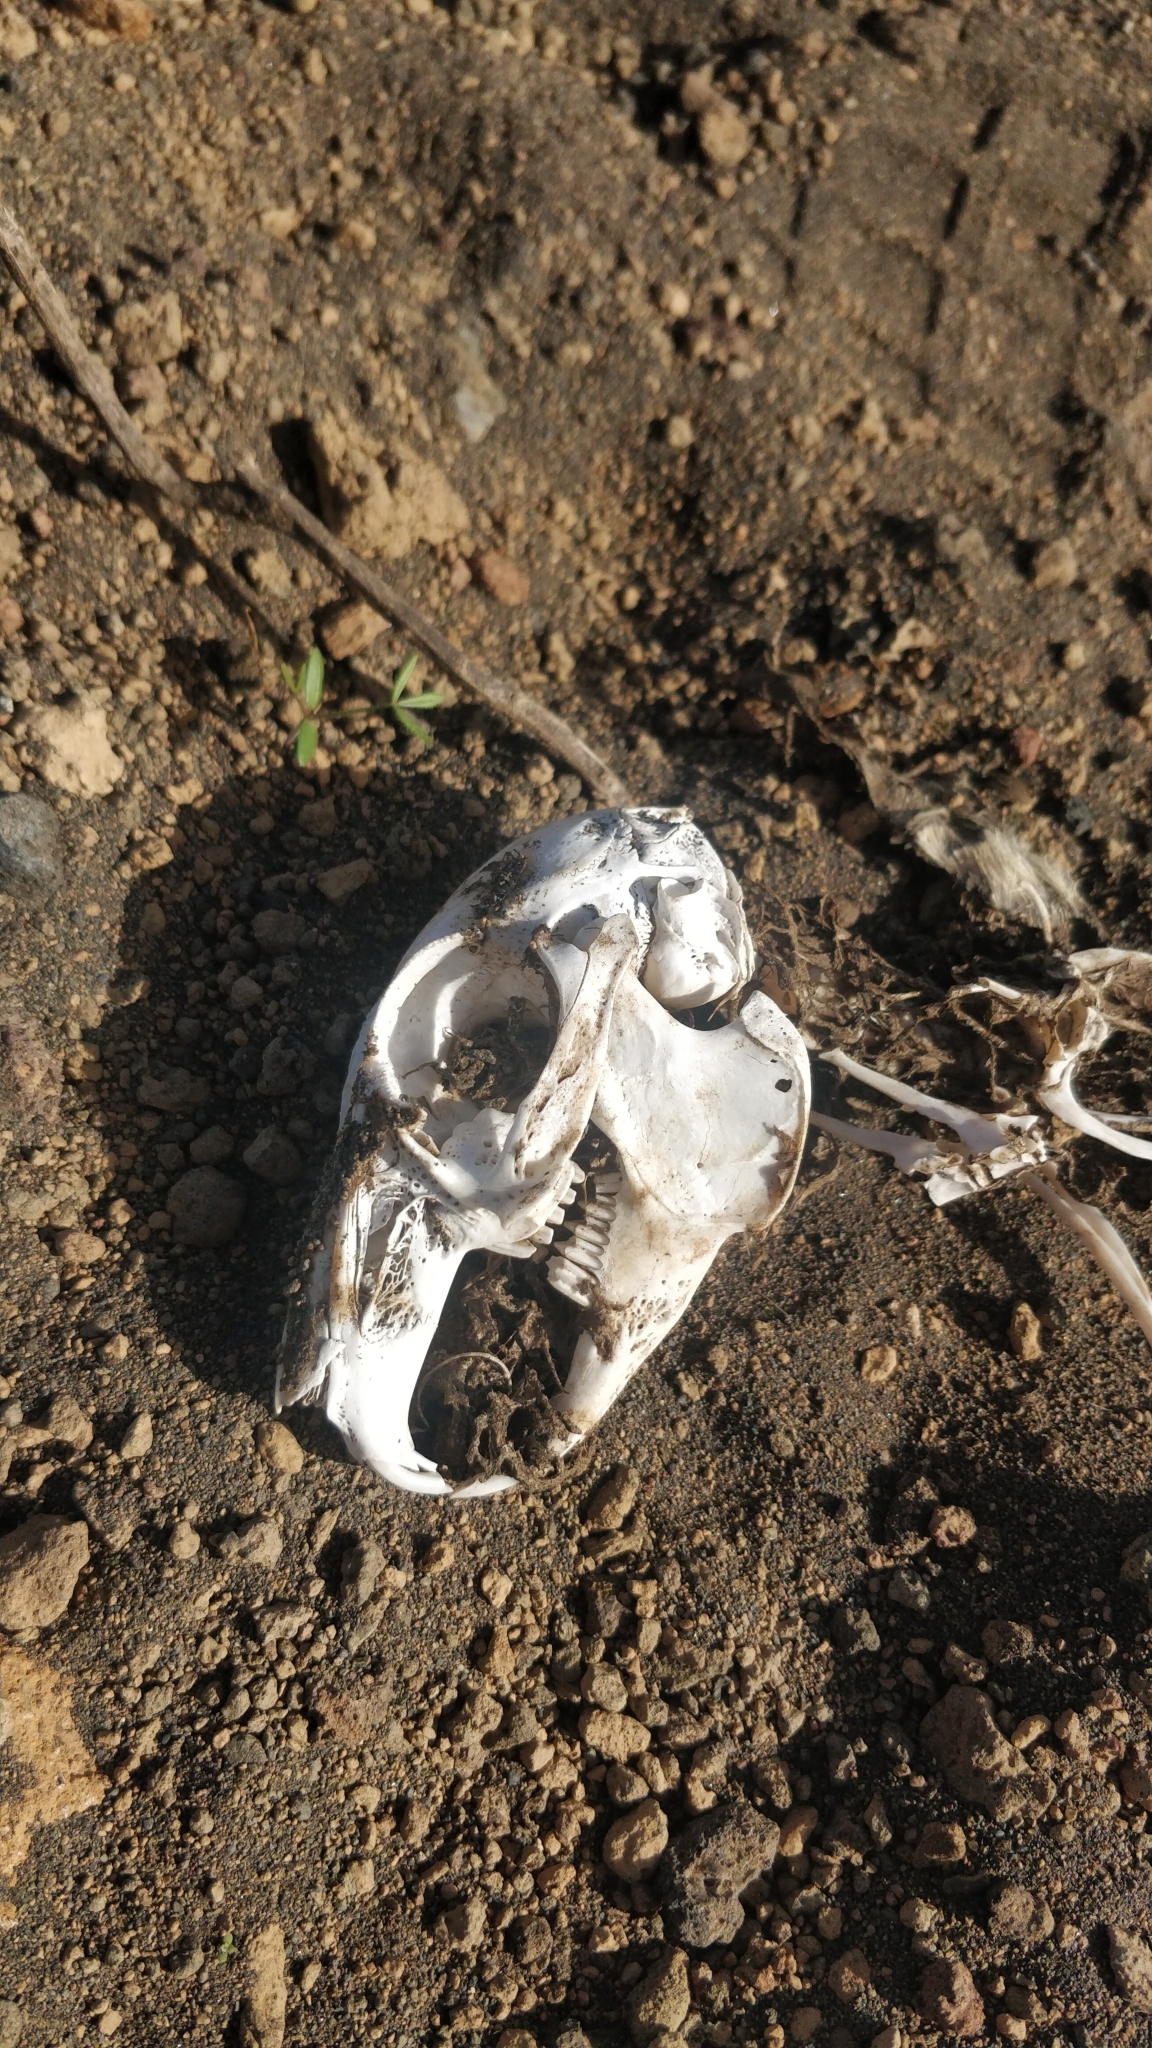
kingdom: Animalia
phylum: Chordata
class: Mammalia
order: Lagomorpha
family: Leporidae
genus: Oryctolagus
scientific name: Oryctolagus cuniculus
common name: European rabbit
